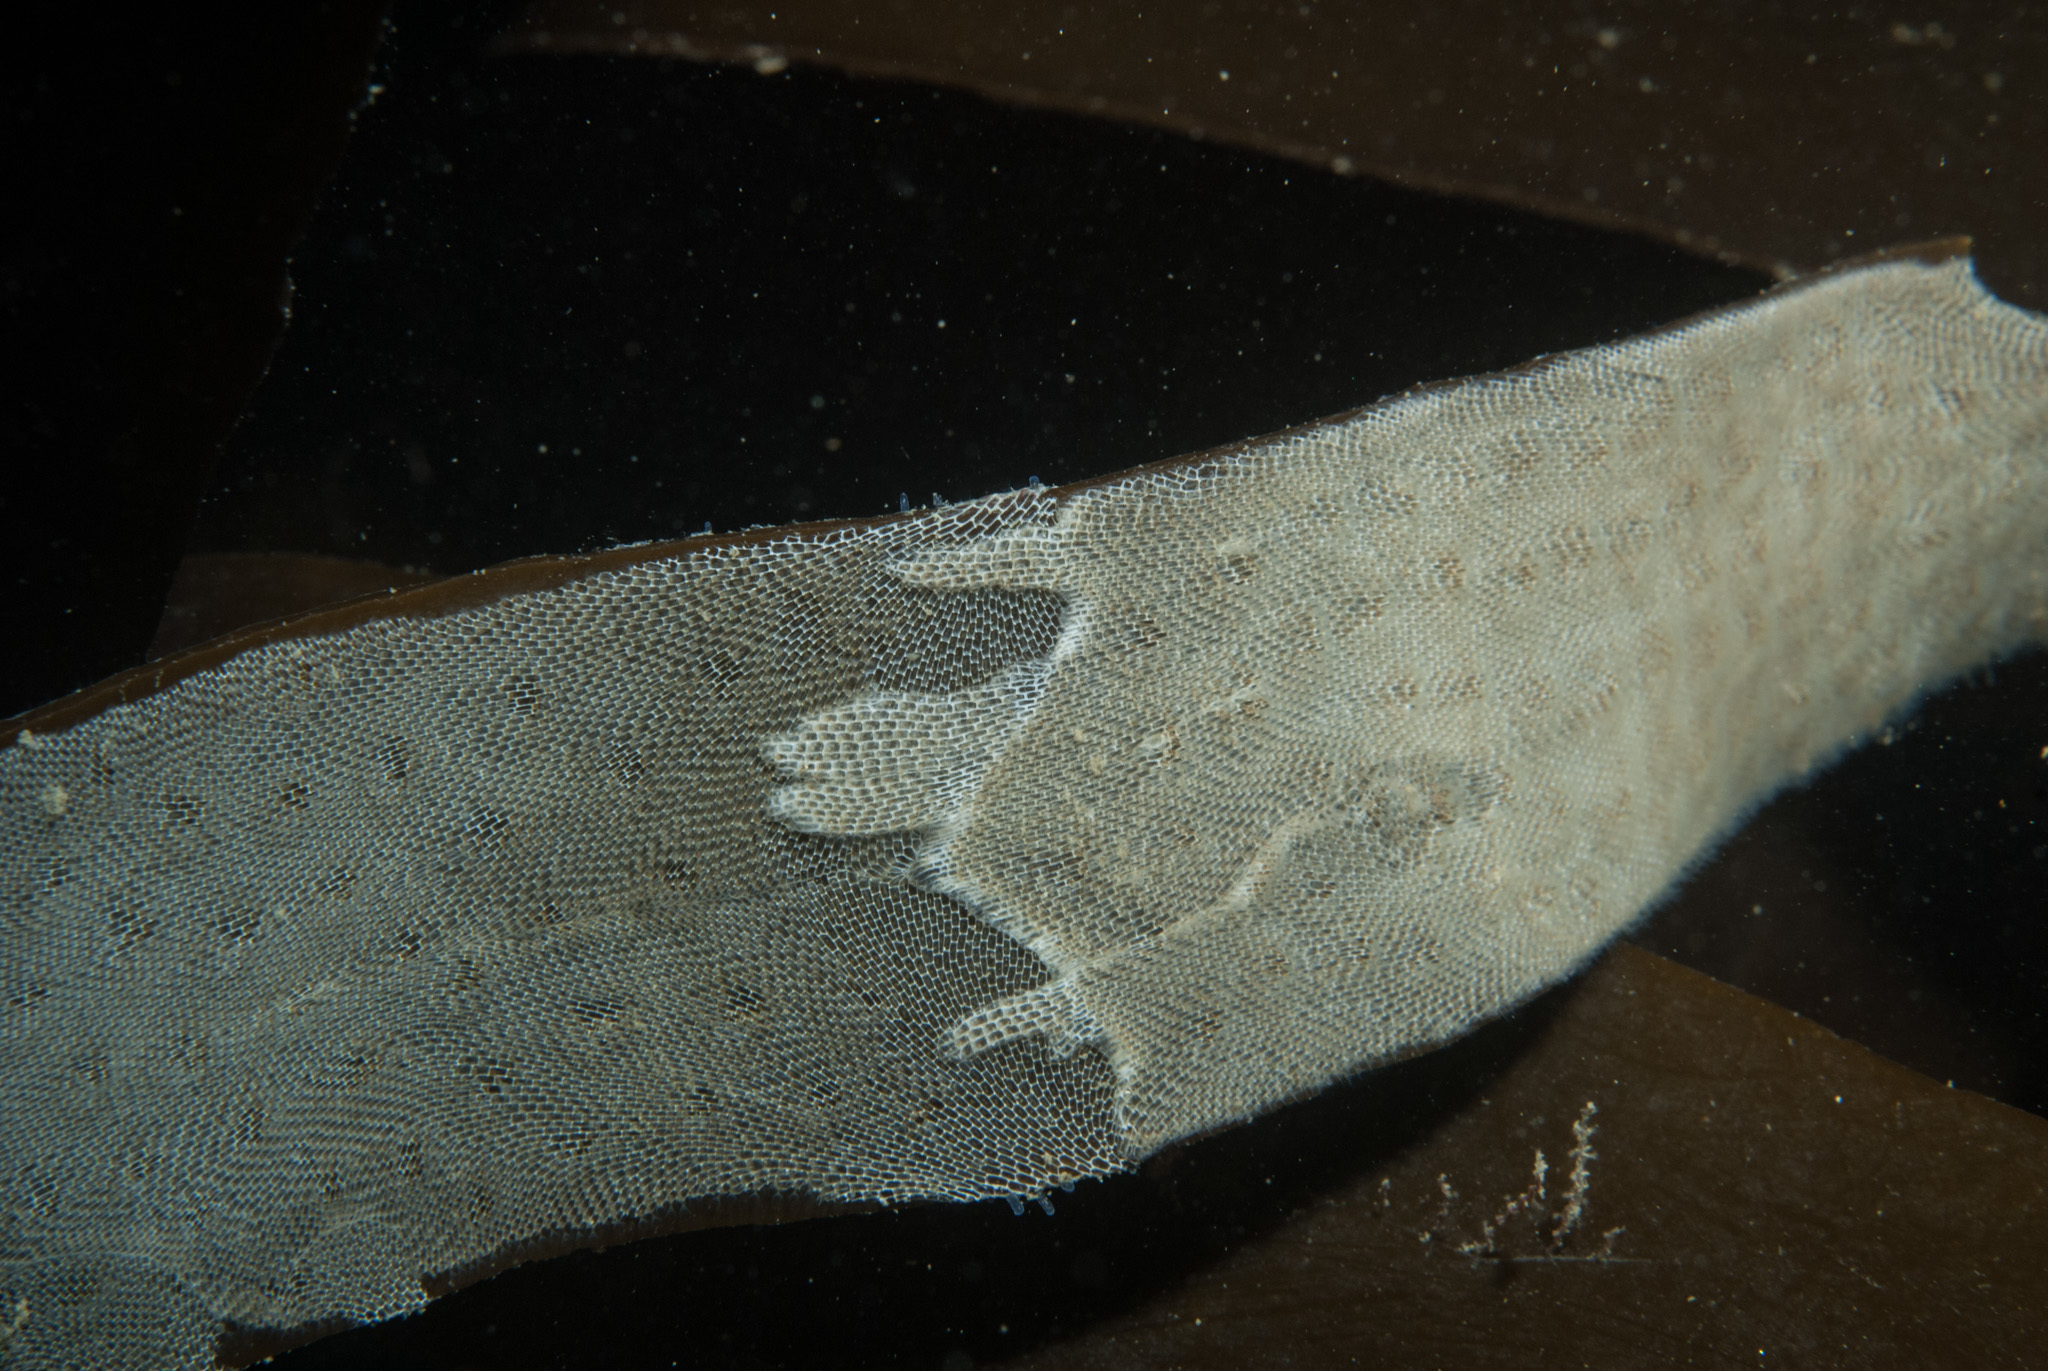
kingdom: Animalia
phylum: Bryozoa
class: Gymnolaemata
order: Cheilostomatida
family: Membraniporidae
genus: Membranipora
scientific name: Membranipora membranacea
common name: Sea mat
